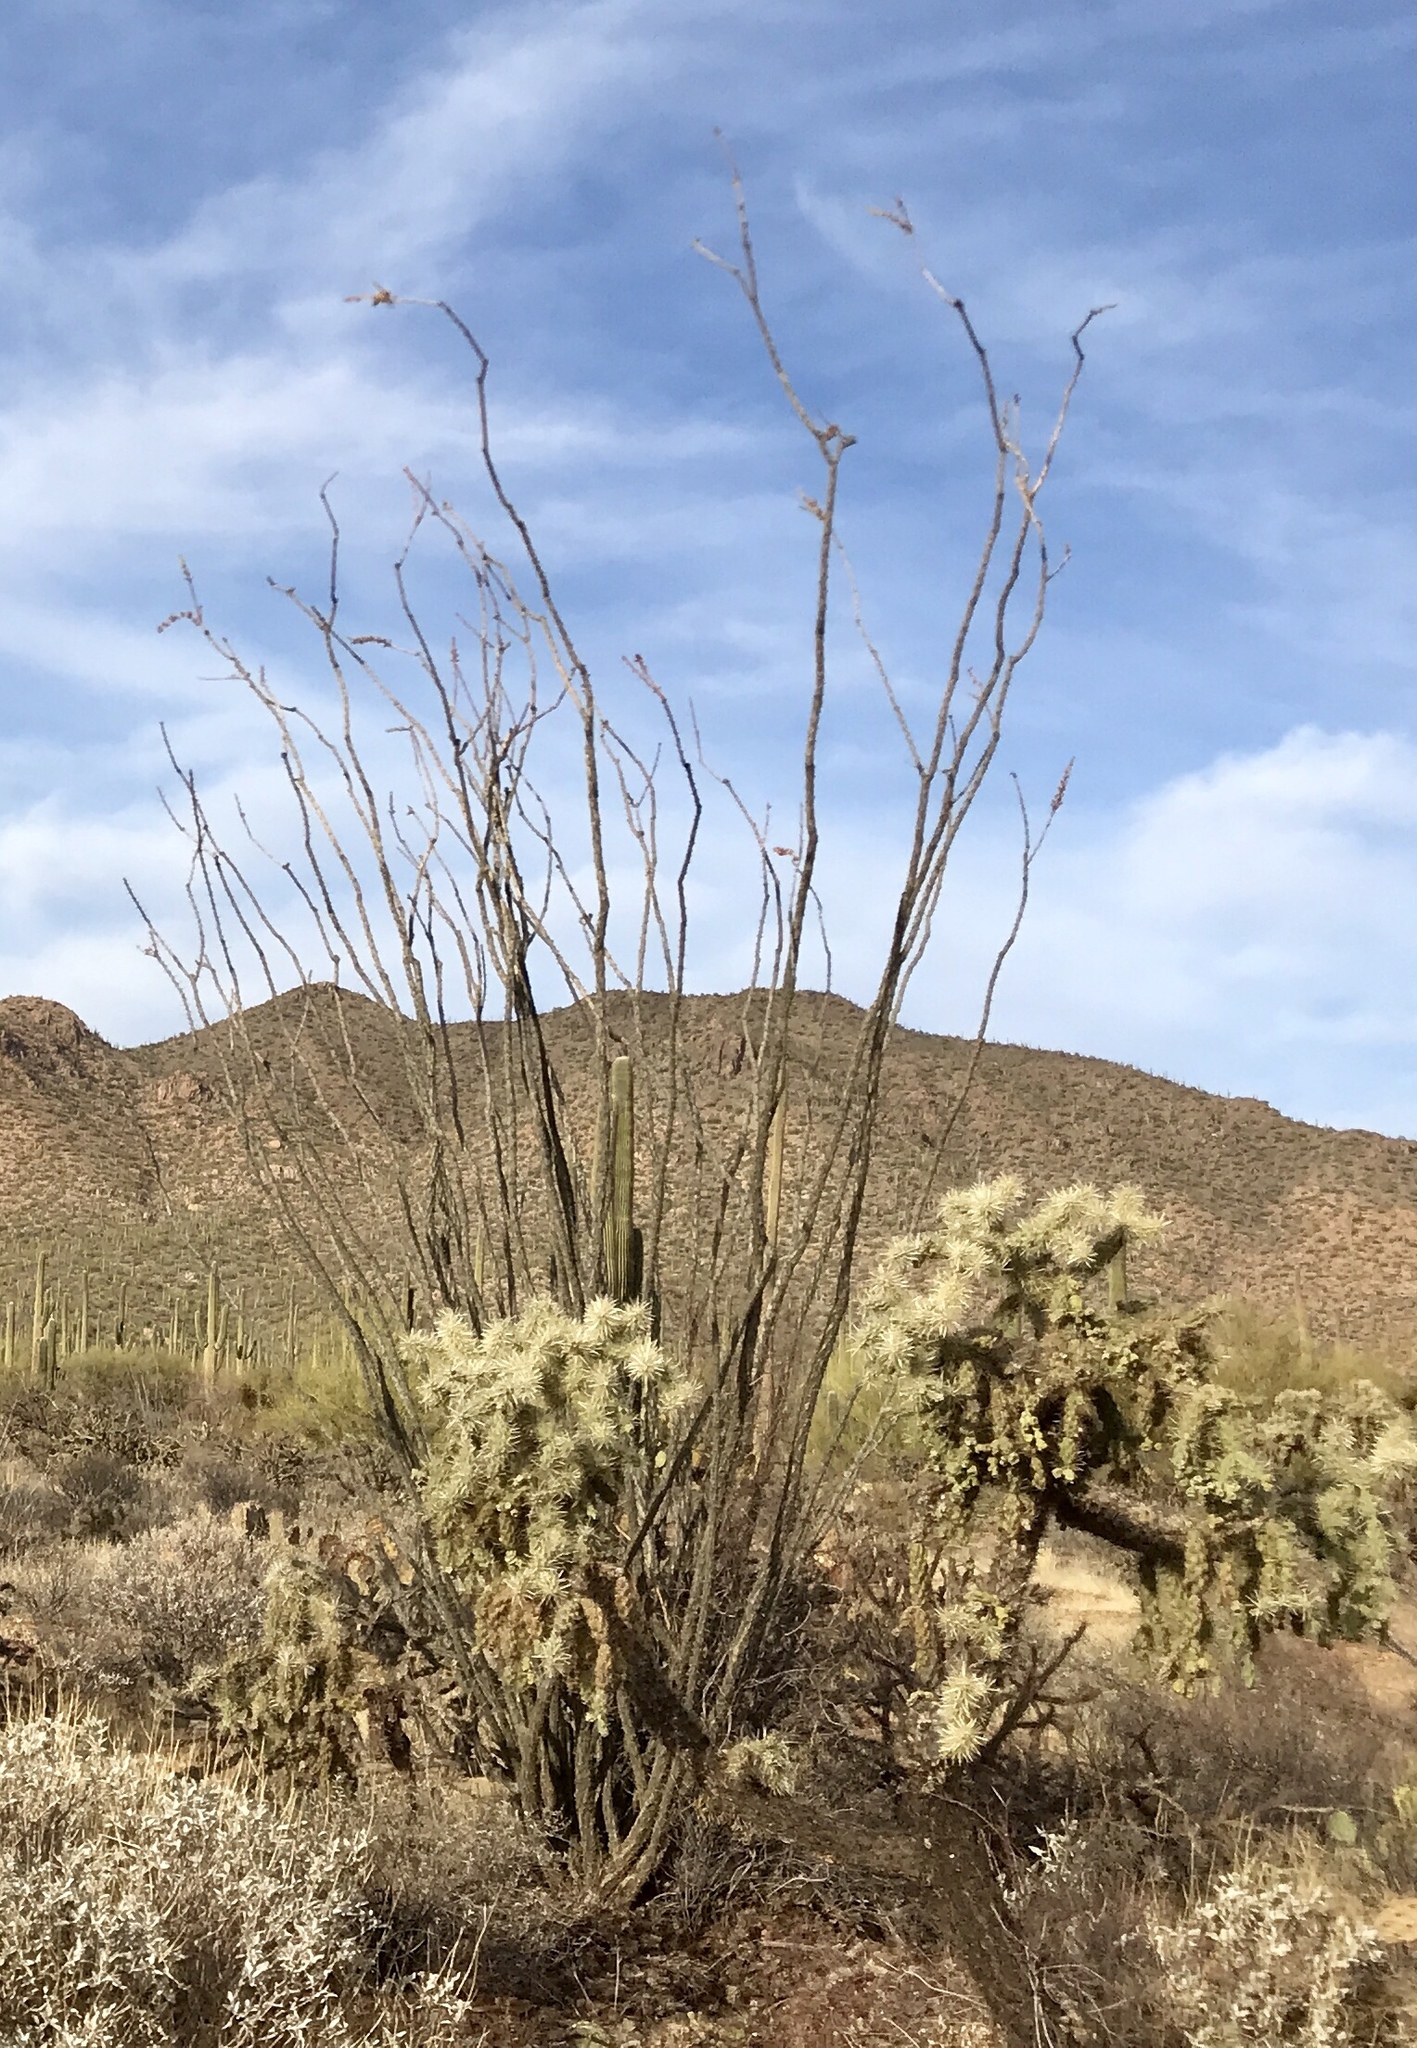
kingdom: Plantae
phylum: Tracheophyta
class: Magnoliopsida
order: Ericales
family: Fouquieriaceae
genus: Fouquieria
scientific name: Fouquieria splendens
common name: Vine-cactus
